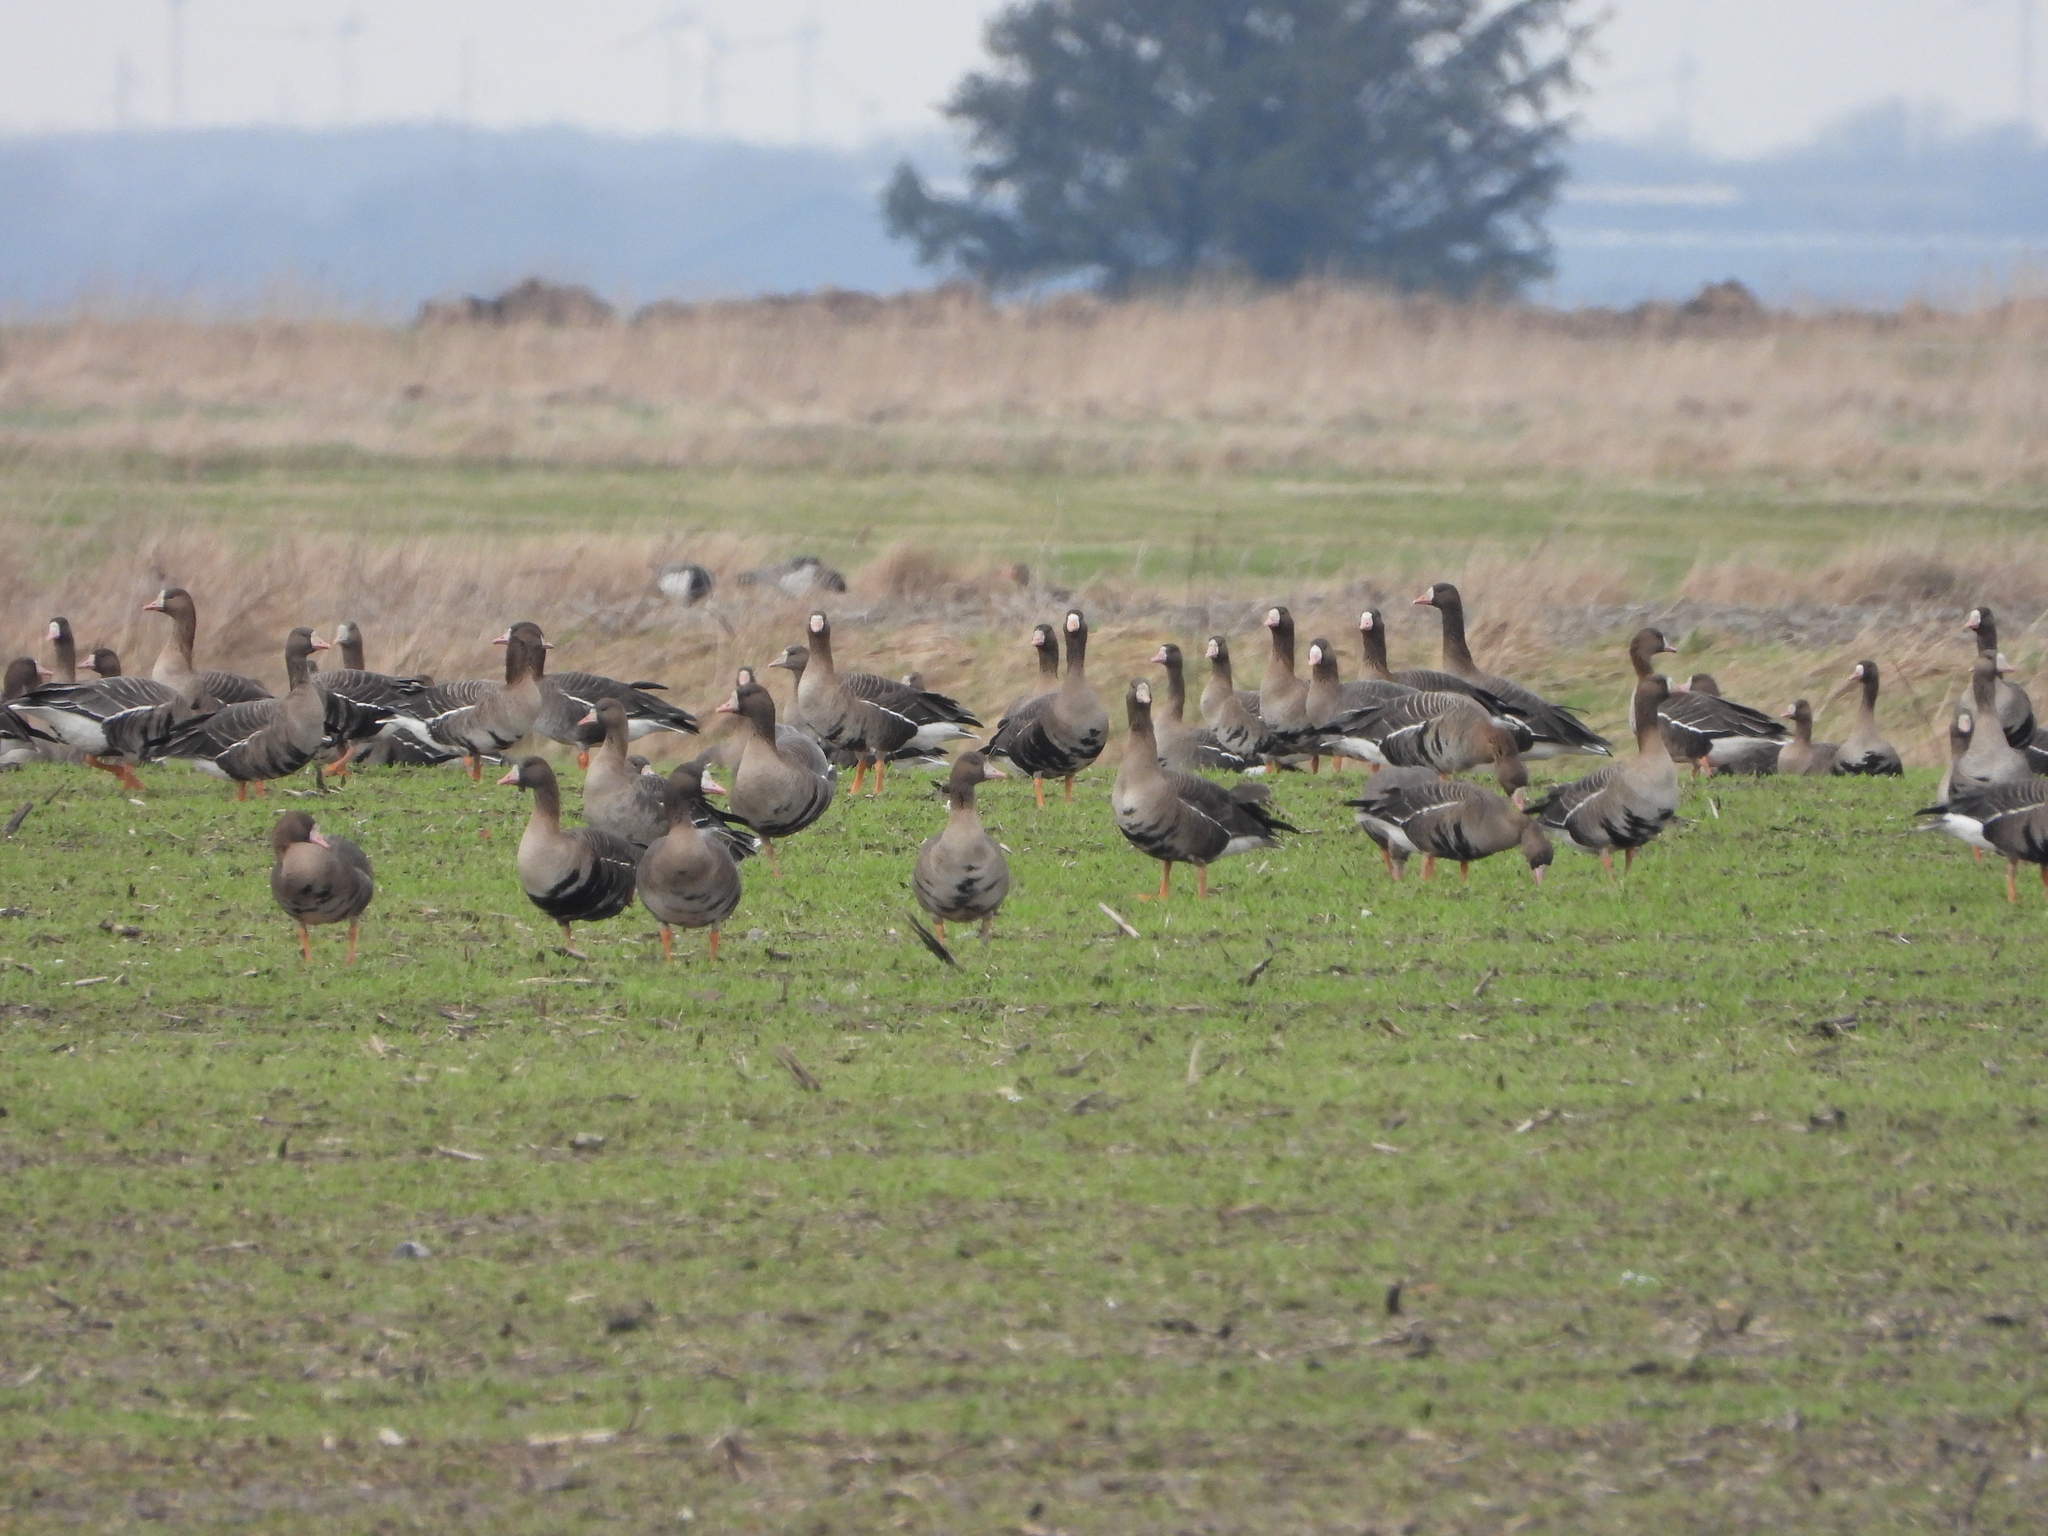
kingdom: Animalia
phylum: Chordata
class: Aves
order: Anseriformes
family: Anatidae
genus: Anser
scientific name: Anser albifrons
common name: Greater white-fronted goose
